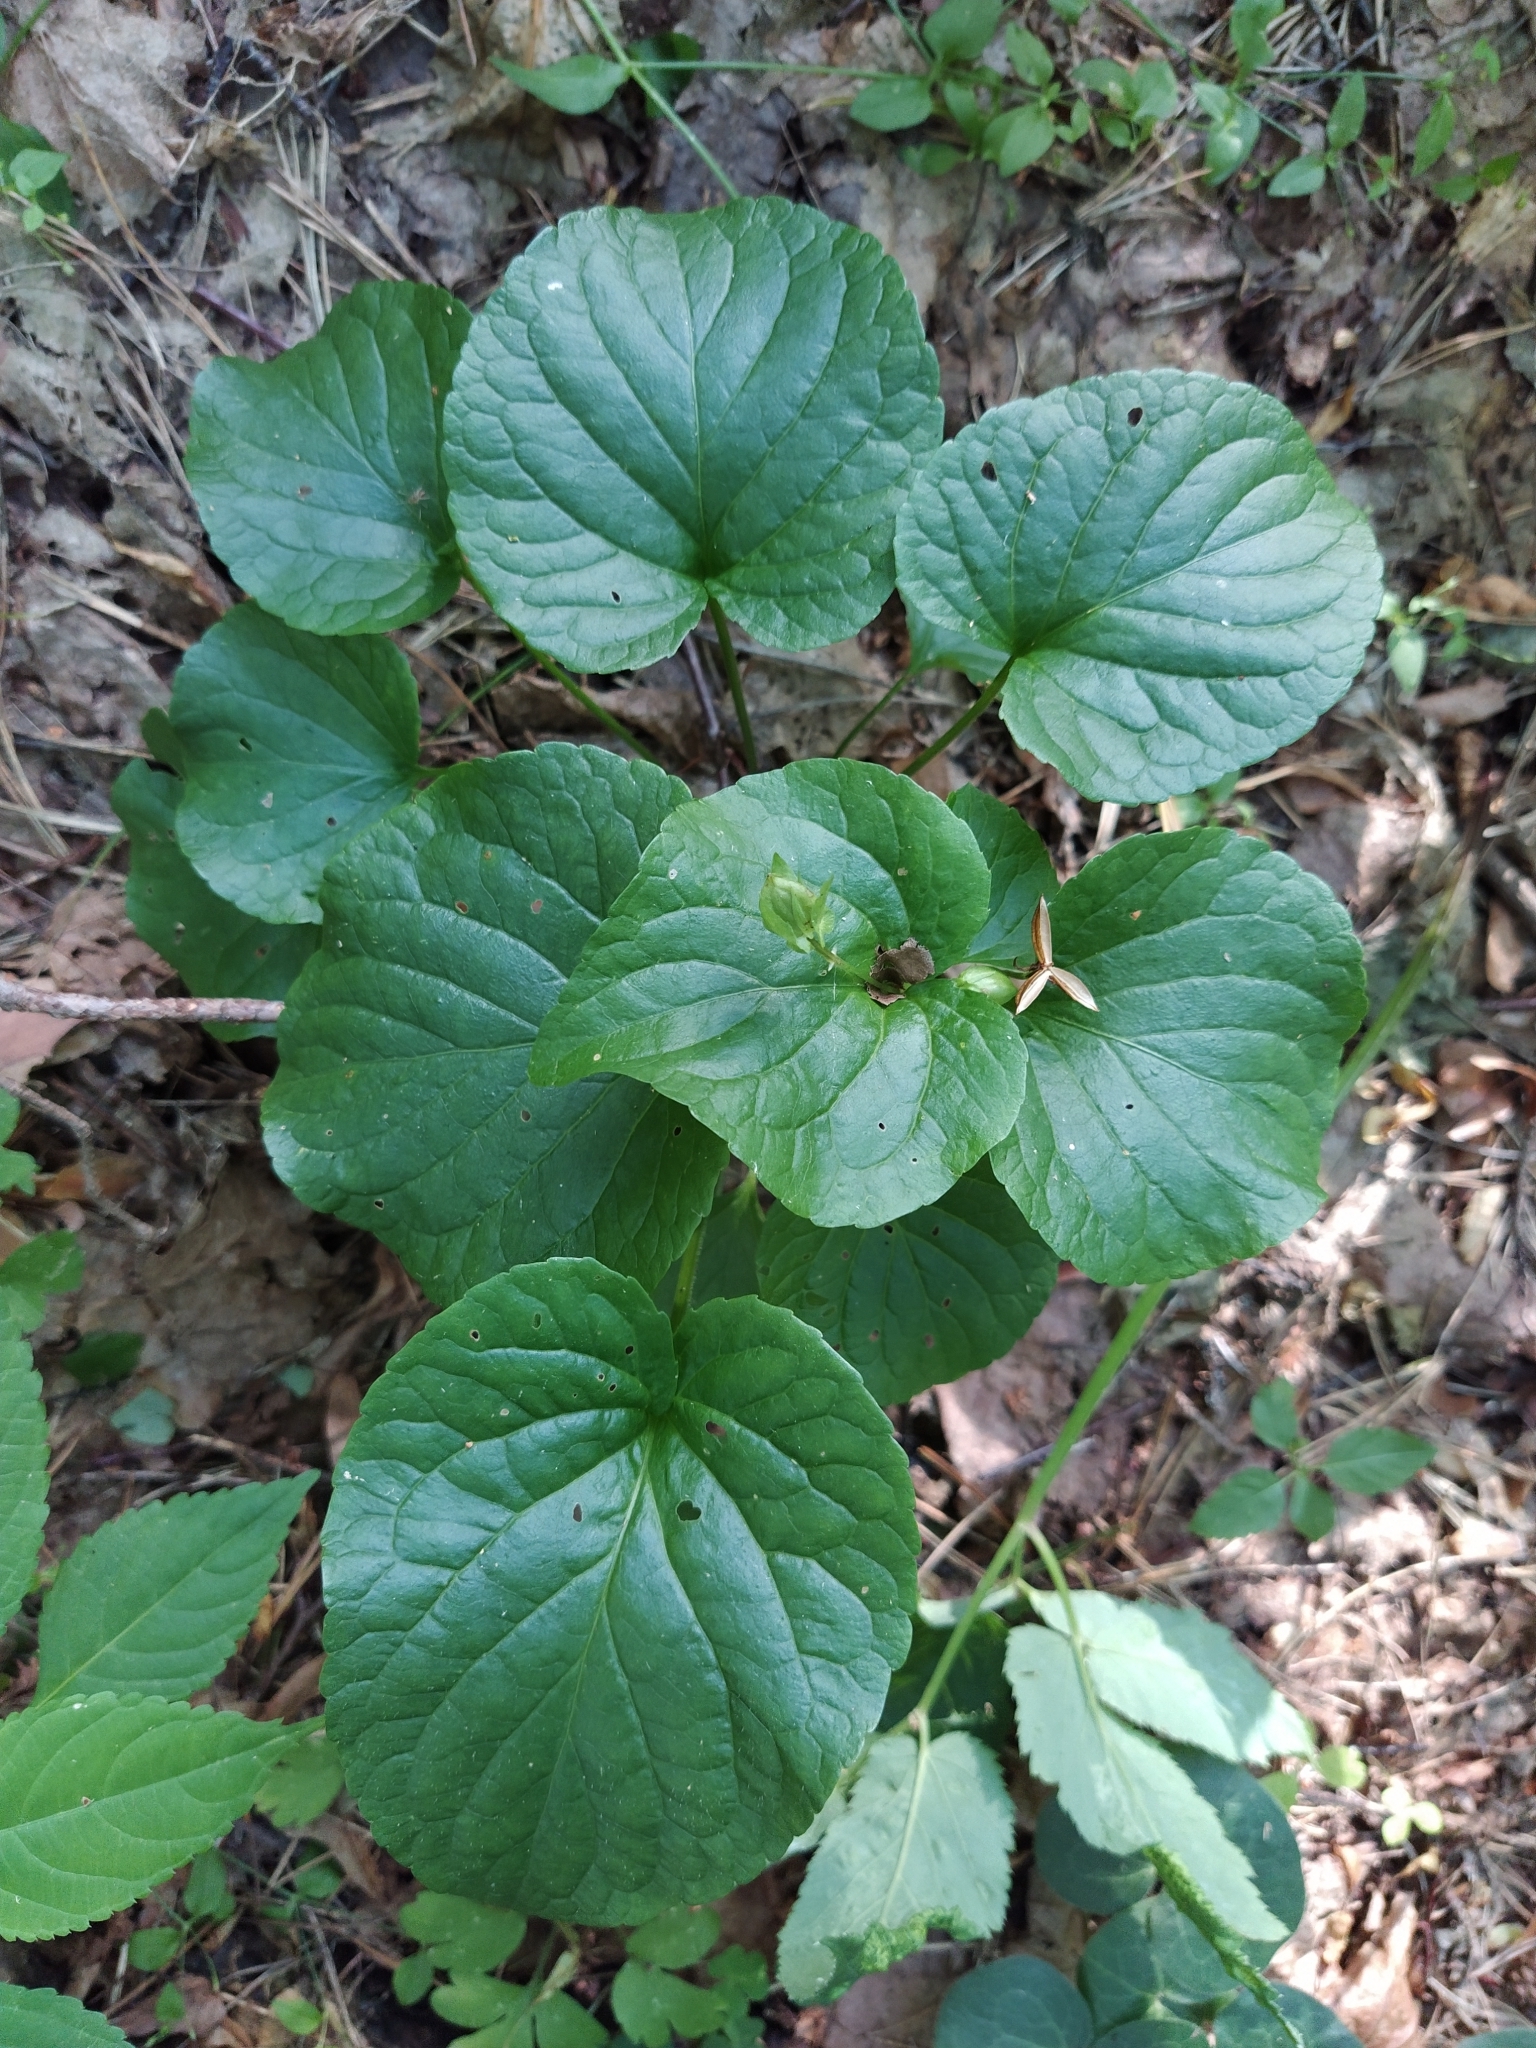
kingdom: Plantae
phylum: Tracheophyta
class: Magnoliopsida
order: Malpighiales
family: Violaceae
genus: Viola
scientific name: Viola mirabilis
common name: Wonder violet
